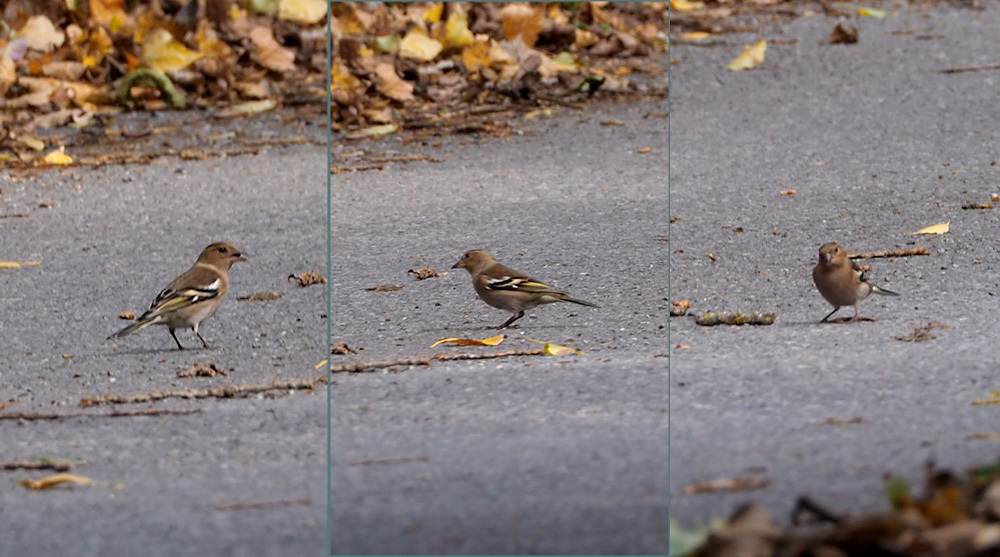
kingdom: Animalia
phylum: Chordata
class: Aves
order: Passeriformes
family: Fringillidae
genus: Fringilla
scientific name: Fringilla coelebs
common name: Common chaffinch
